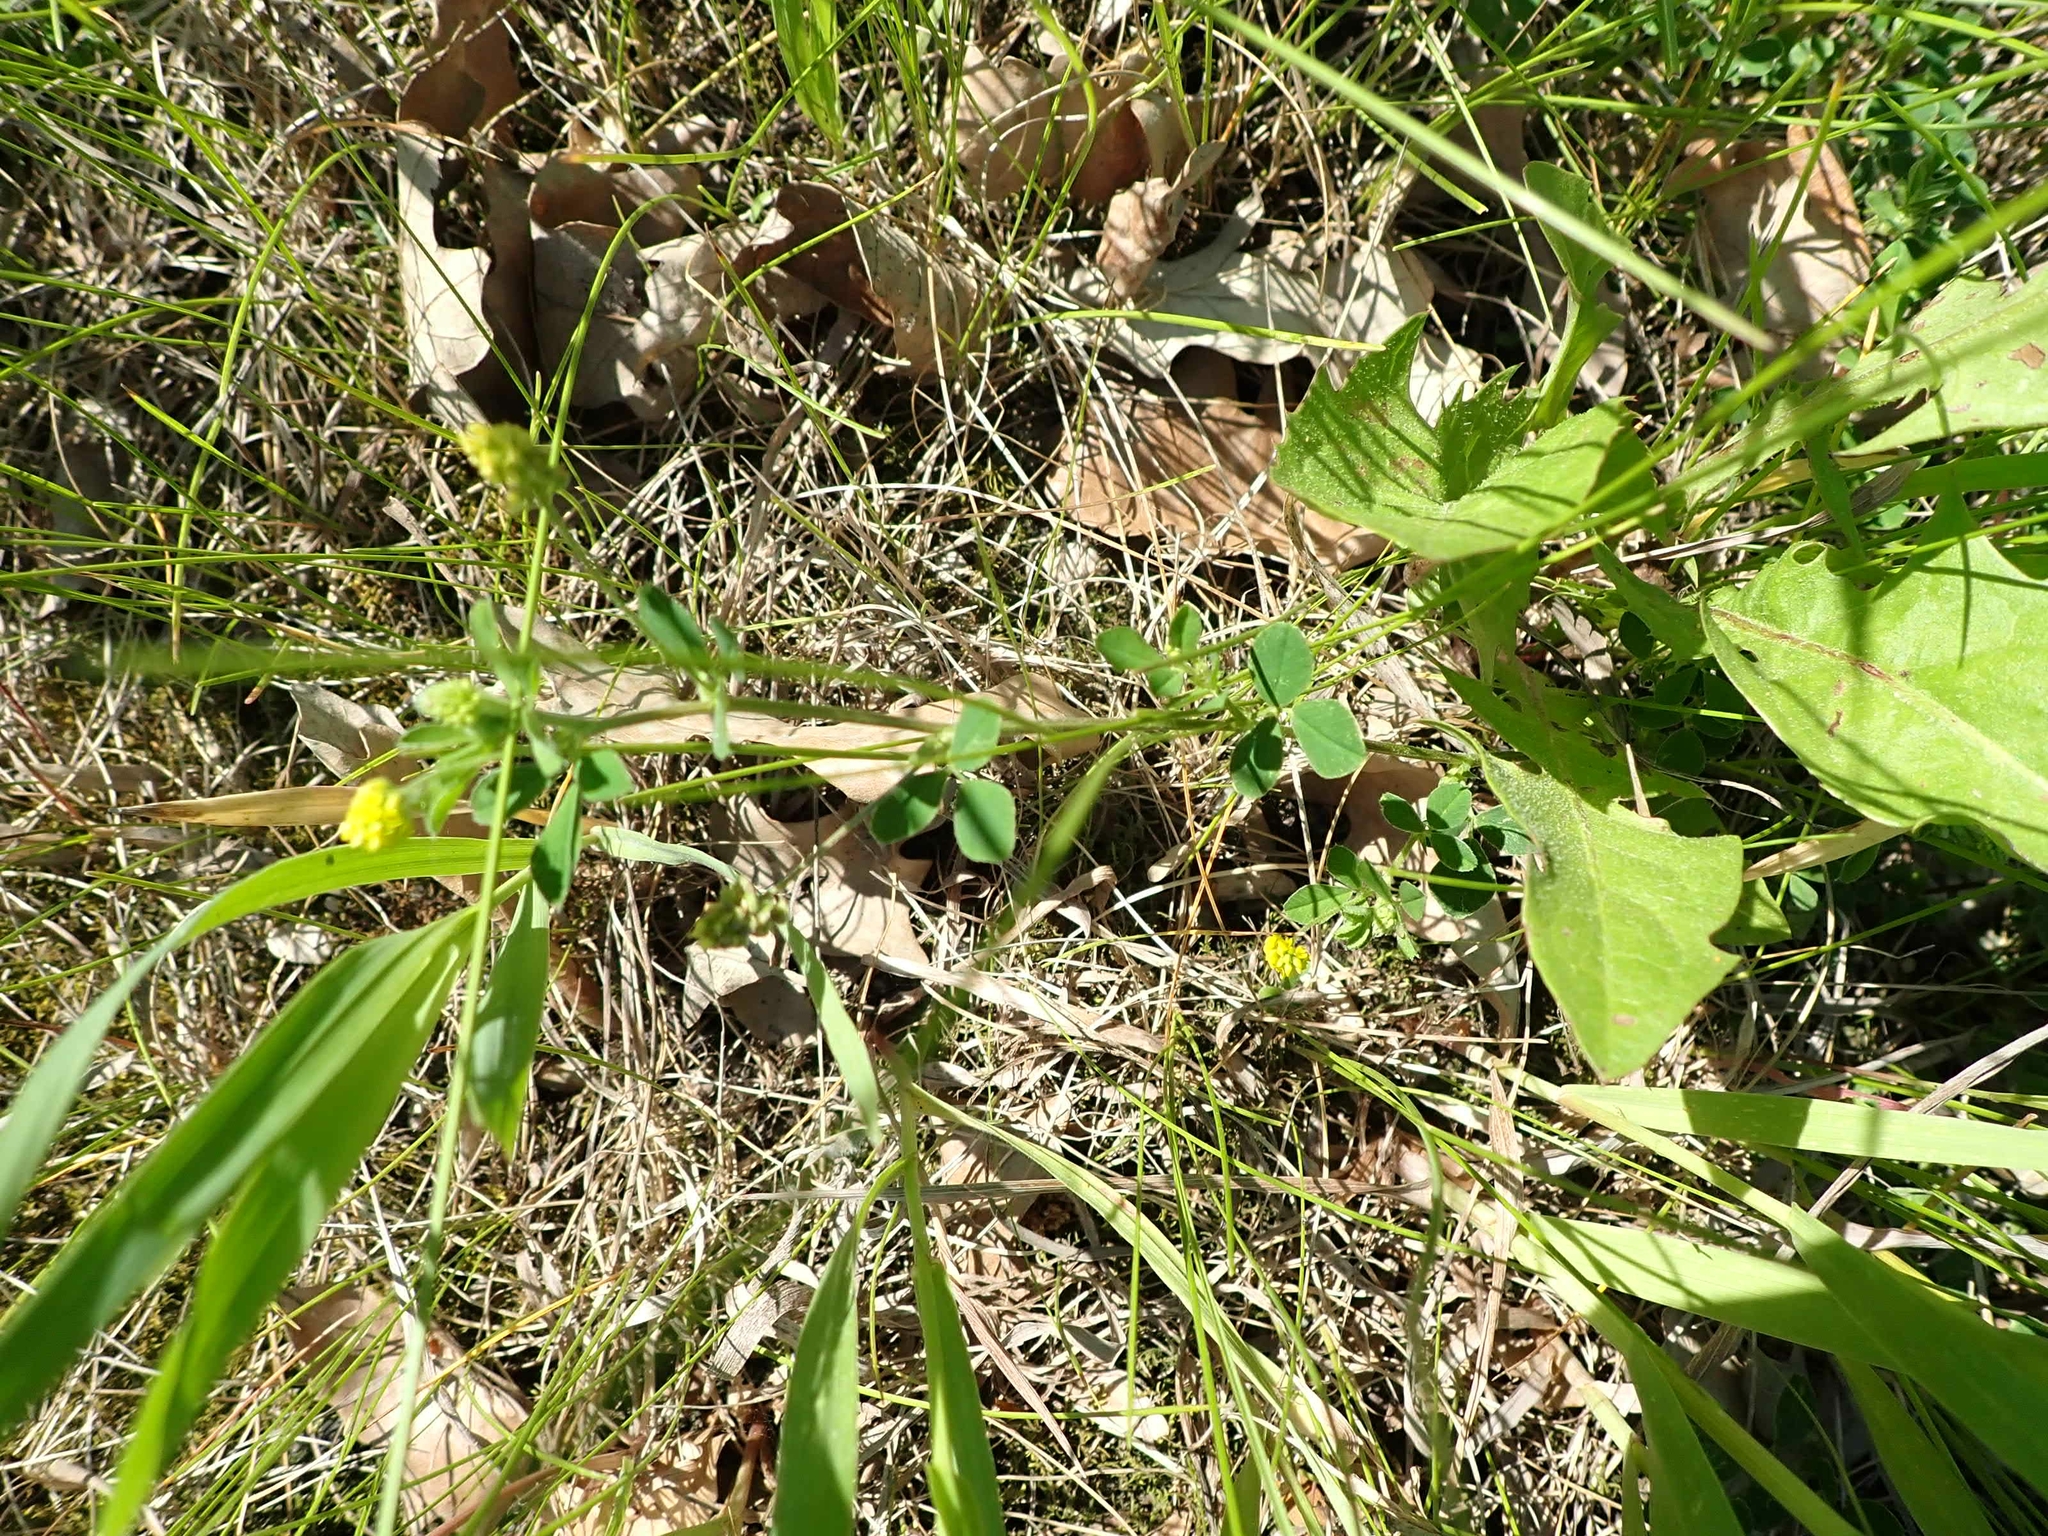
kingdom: Plantae
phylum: Tracheophyta
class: Magnoliopsida
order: Fabales
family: Fabaceae
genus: Medicago
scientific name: Medicago lupulina
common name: Black medick
